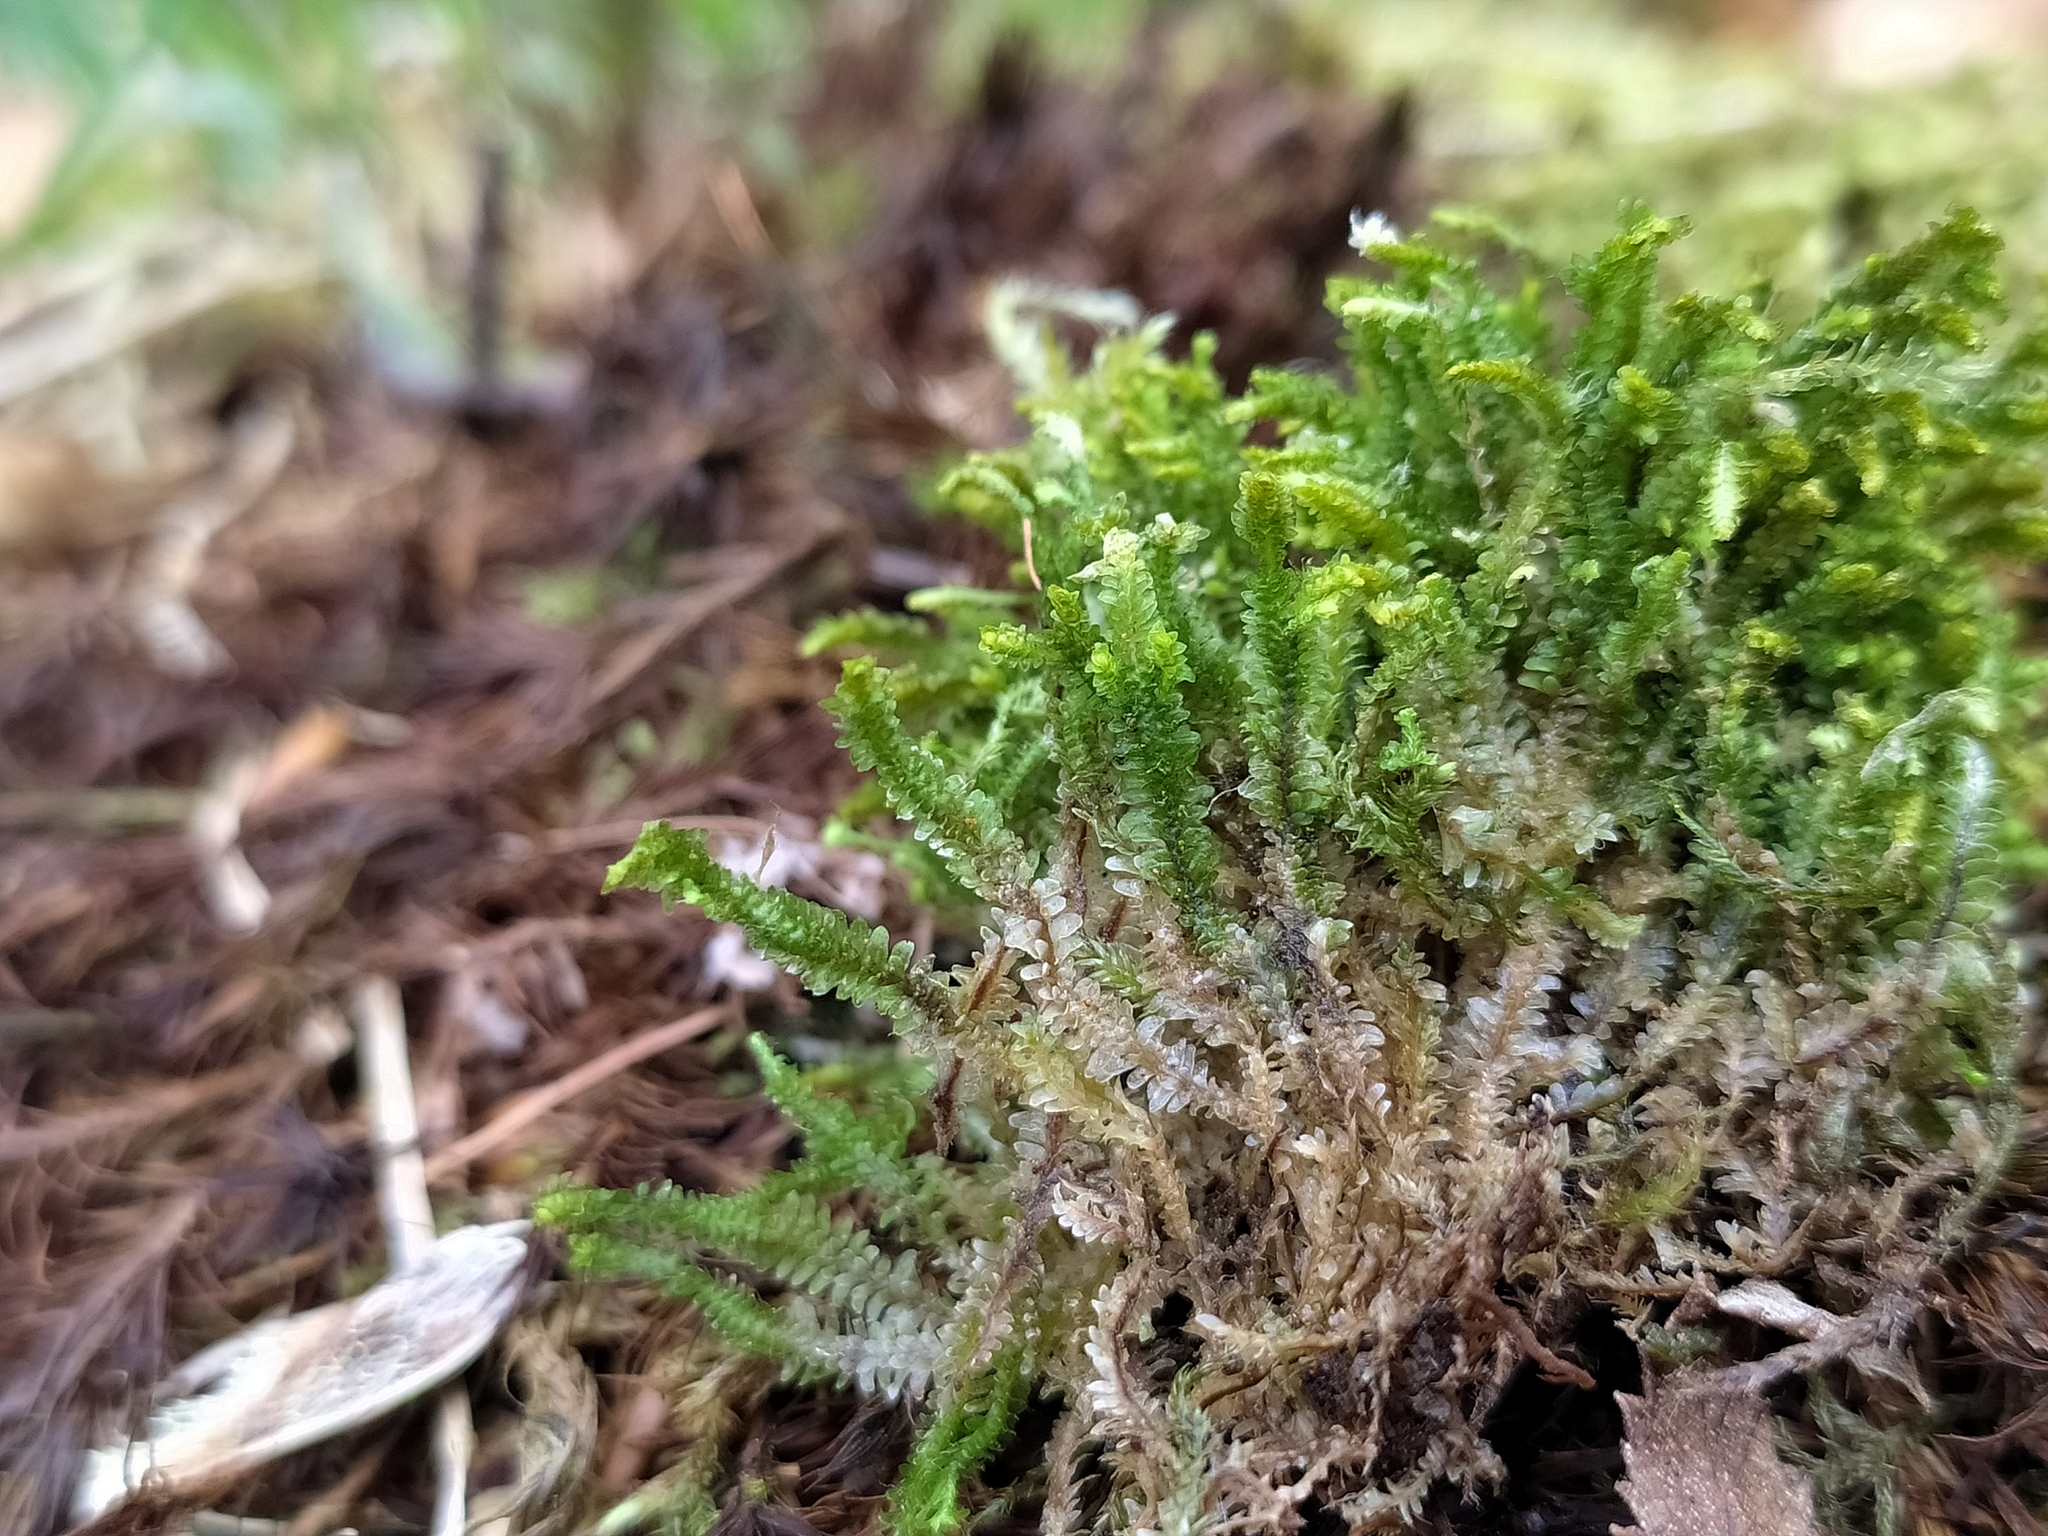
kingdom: Plantae
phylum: Marchantiophyta
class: Jungermanniopsida
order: Jungermanniales
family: Scapaniaceae
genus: Diplophyllum
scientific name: Diplophyllum albicans
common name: White earwort
